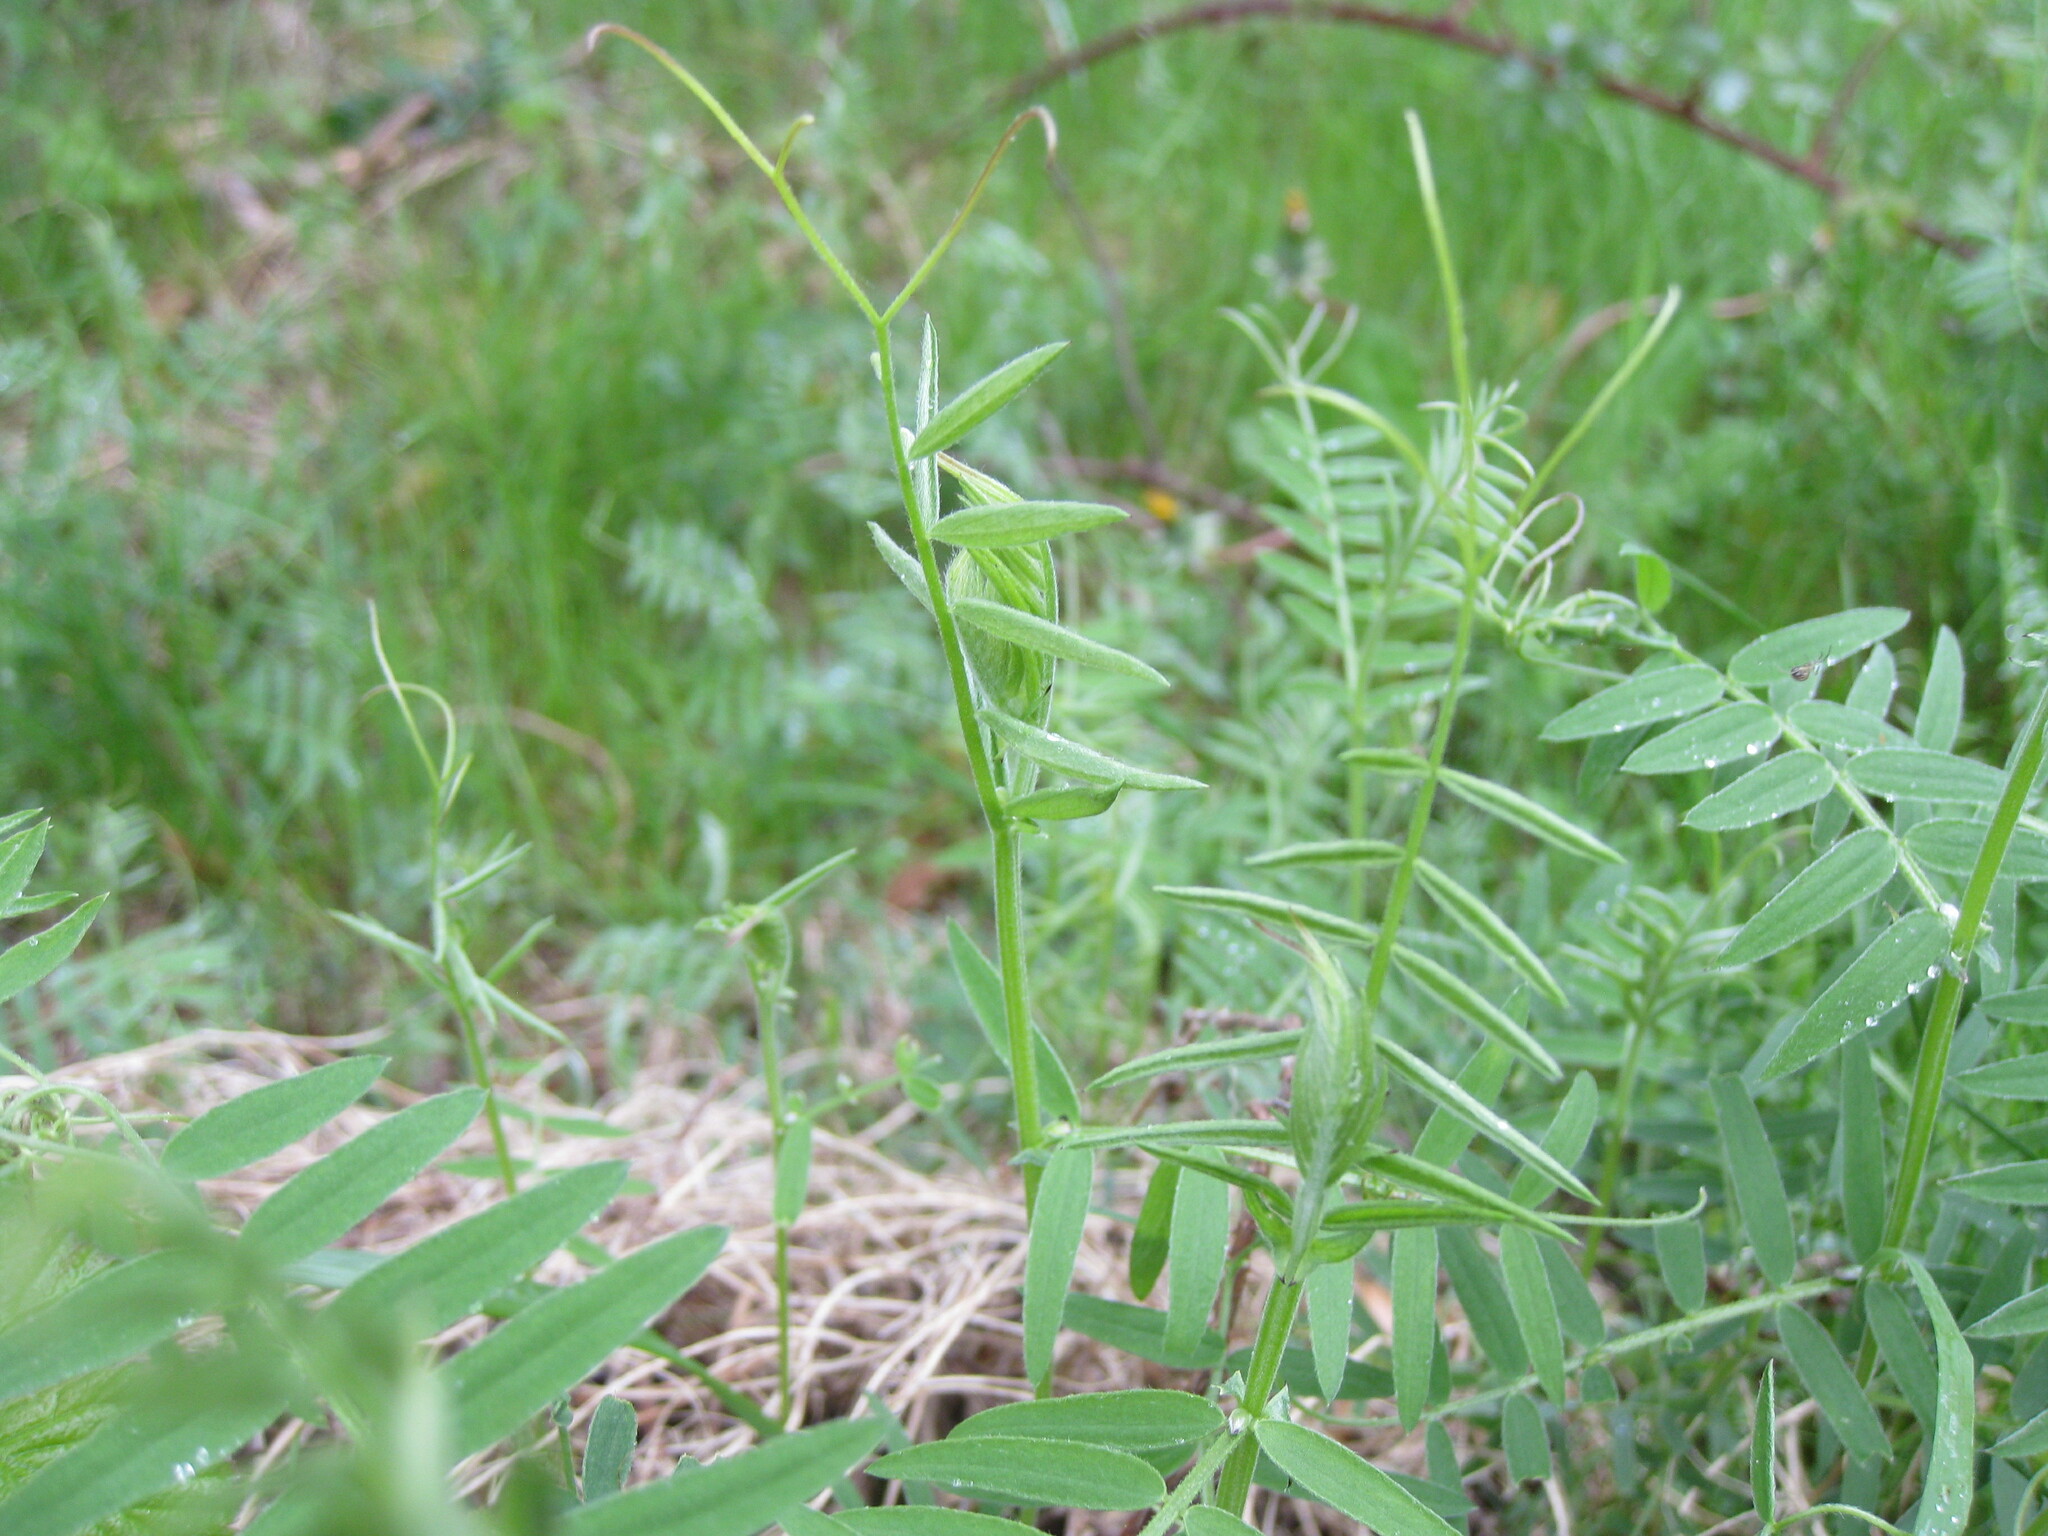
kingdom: Plantae
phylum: Tracheophyta
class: Magnoliopsida
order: Fabales
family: Fabaceae
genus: Vicia
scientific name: Vicia cracca
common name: Bird vetch
